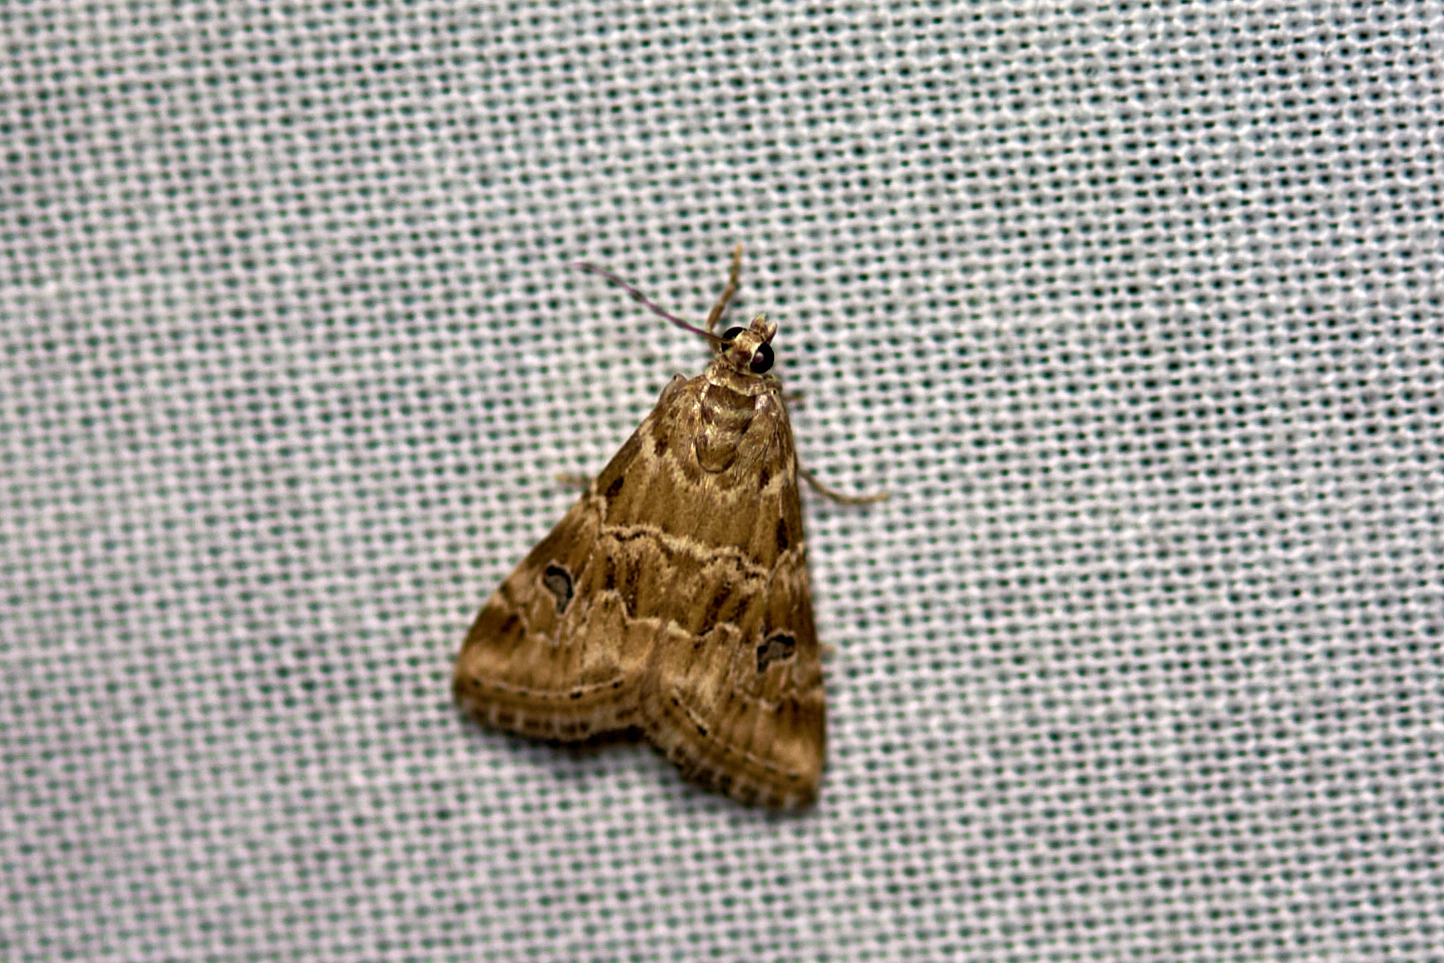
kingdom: Animalia
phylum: Arthropoda
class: Insecta
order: Lepidoptera
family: Crambidae
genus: Hellula
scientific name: Hellula rogatalis
